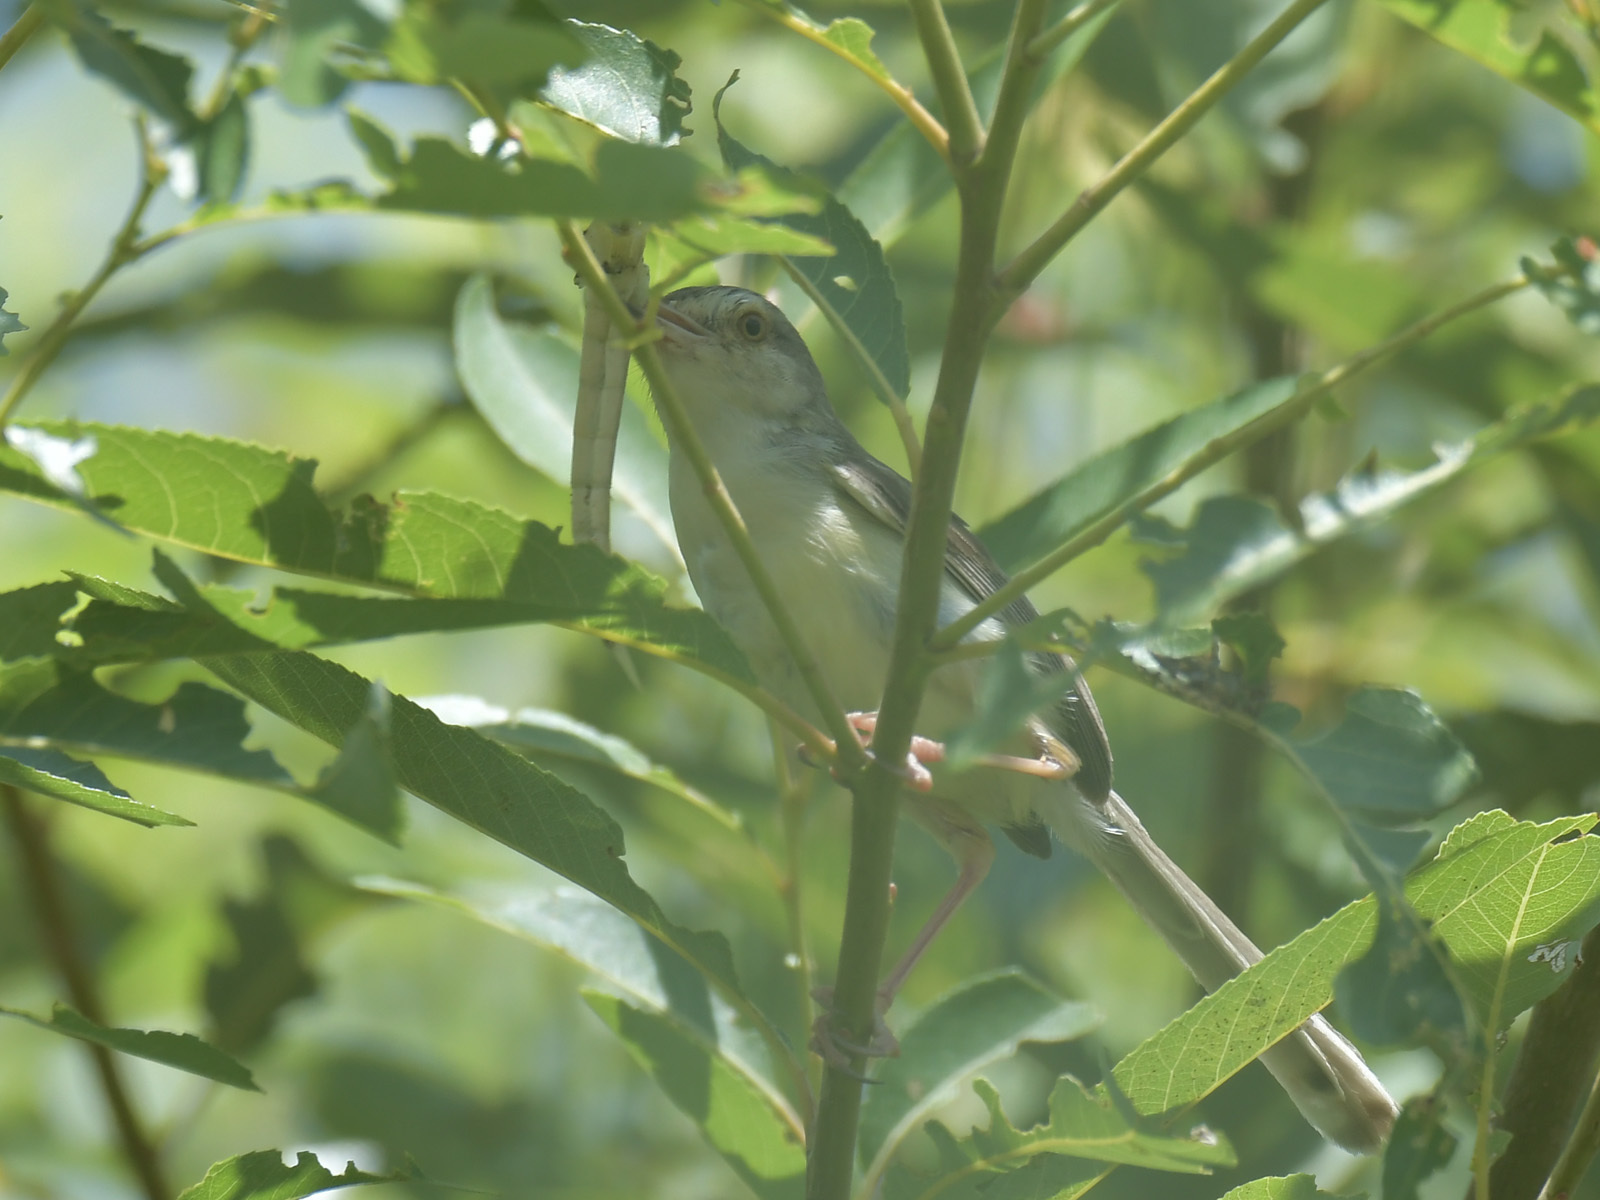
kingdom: Animalia
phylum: Chordata
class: Aves
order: Passeriformes
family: Cisticolidae
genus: Prinia
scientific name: Prinia inornata
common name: Plain prinia
